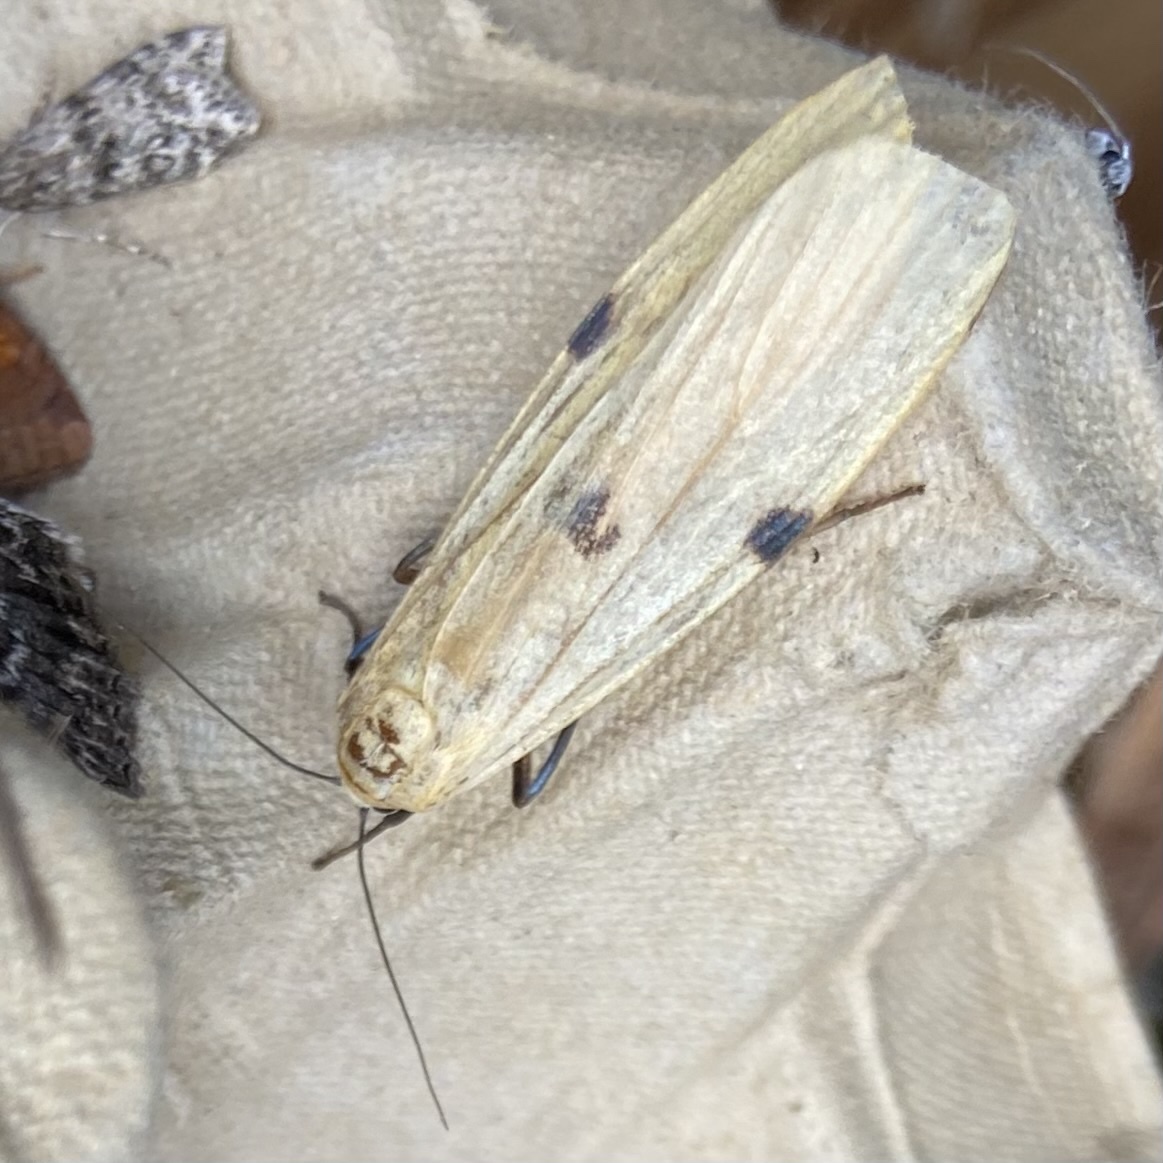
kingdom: Animalia
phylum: Arthropoda
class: Insecta
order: Lepidoptera
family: Erebidae
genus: Lithosia
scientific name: Lithosia quadra
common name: Four-spotted footman
